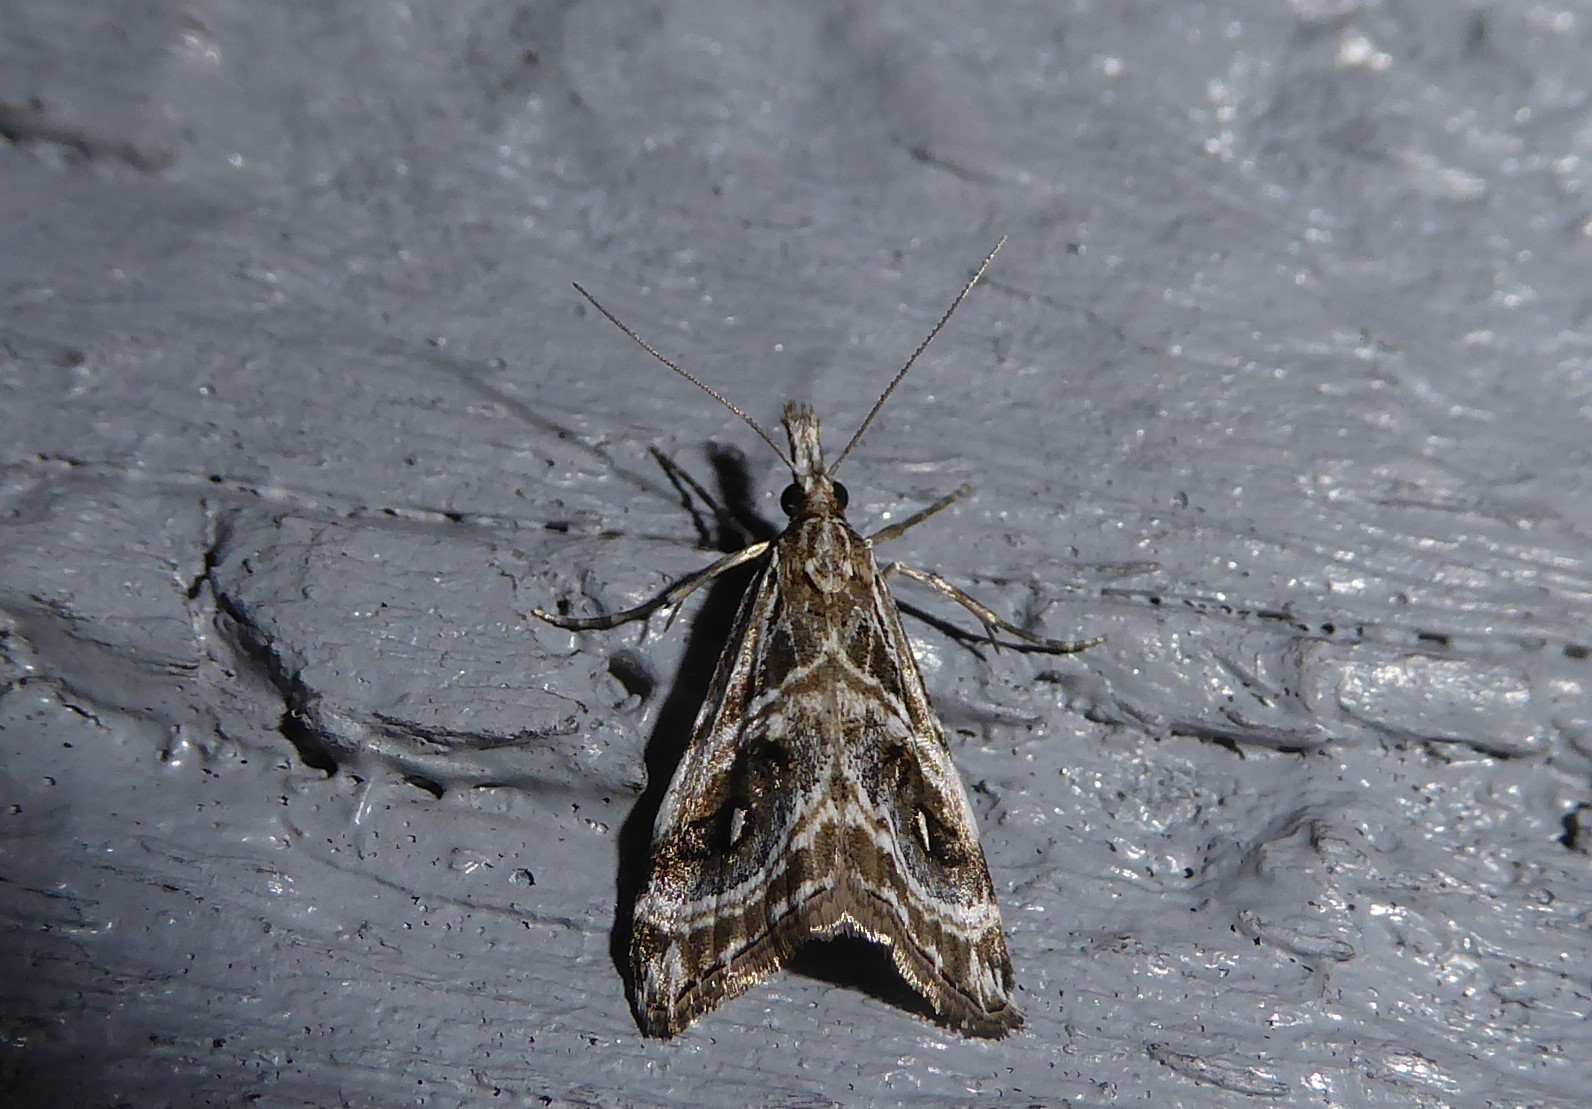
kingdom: Animalia
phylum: Arthropoda
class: Insecta
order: Lepidoptera
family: Crambidae
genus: Gadira
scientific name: Gadira acerella
